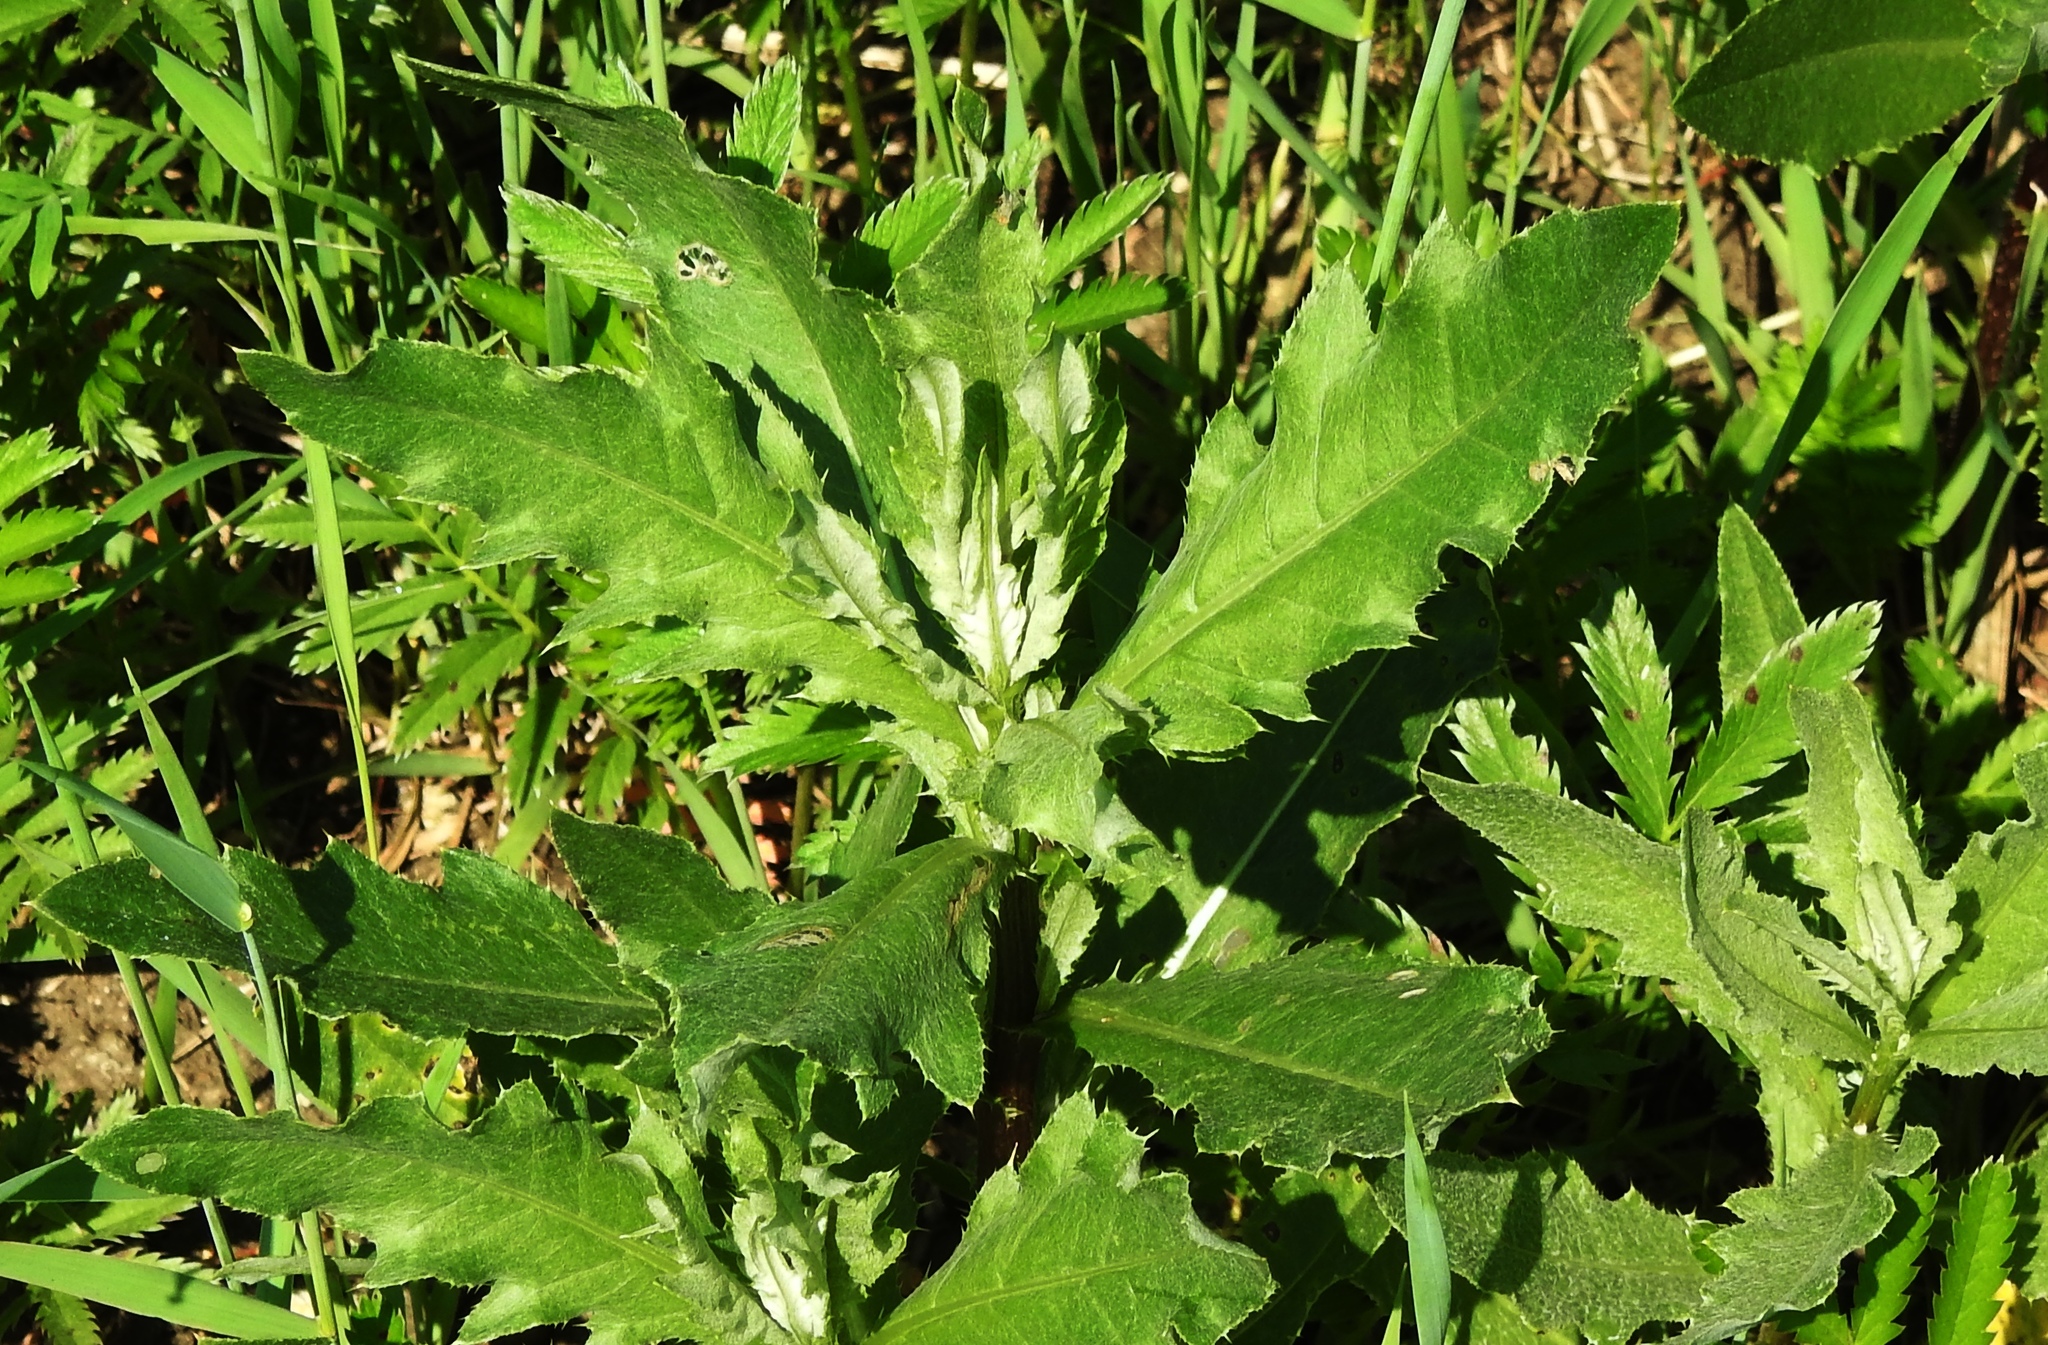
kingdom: Plantae
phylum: Tracheophyta
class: Magnoliopsida
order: Asterales
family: Asteraceae
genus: Cirsium
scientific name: Cirsium arvense
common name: Creeping thistle
